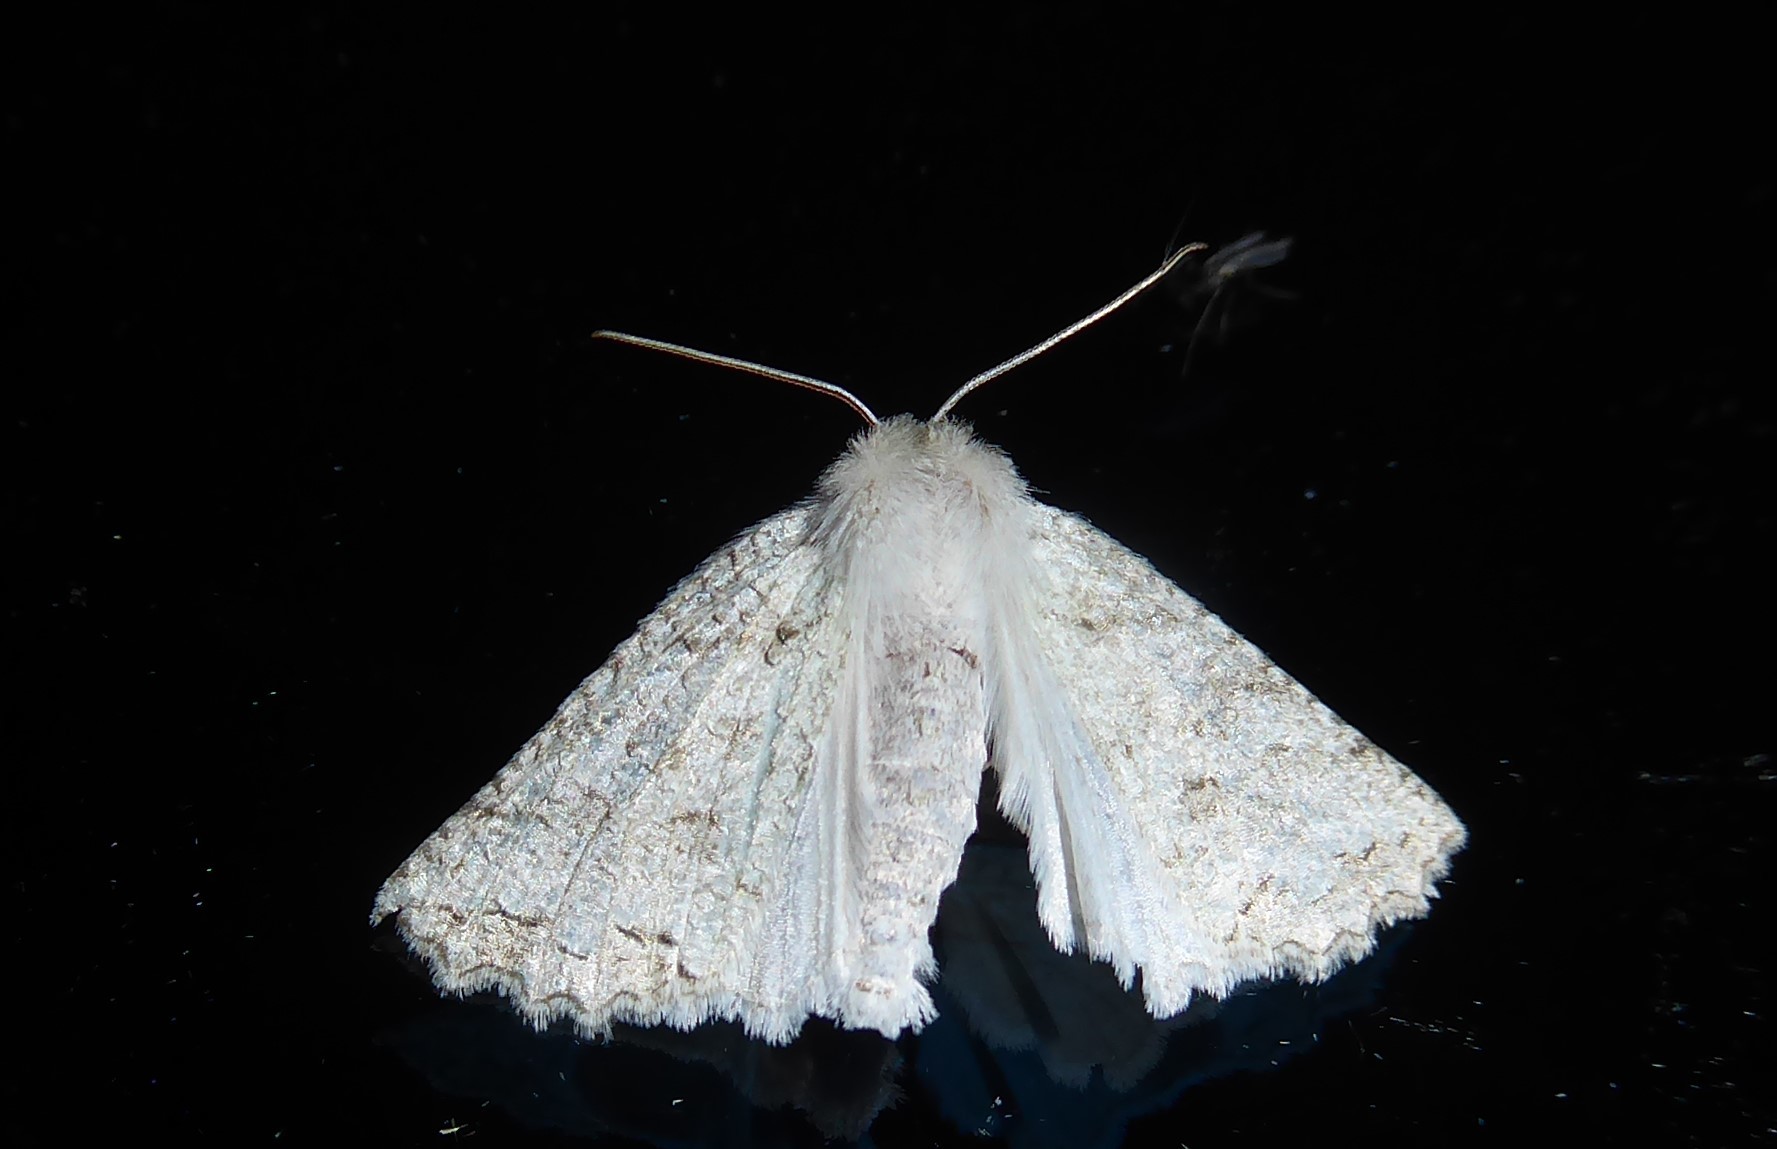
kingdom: Animalia
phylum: Arthropoda
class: Insecta
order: Lepidoptera
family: Geometridae
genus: Declana
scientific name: Declana niveata
